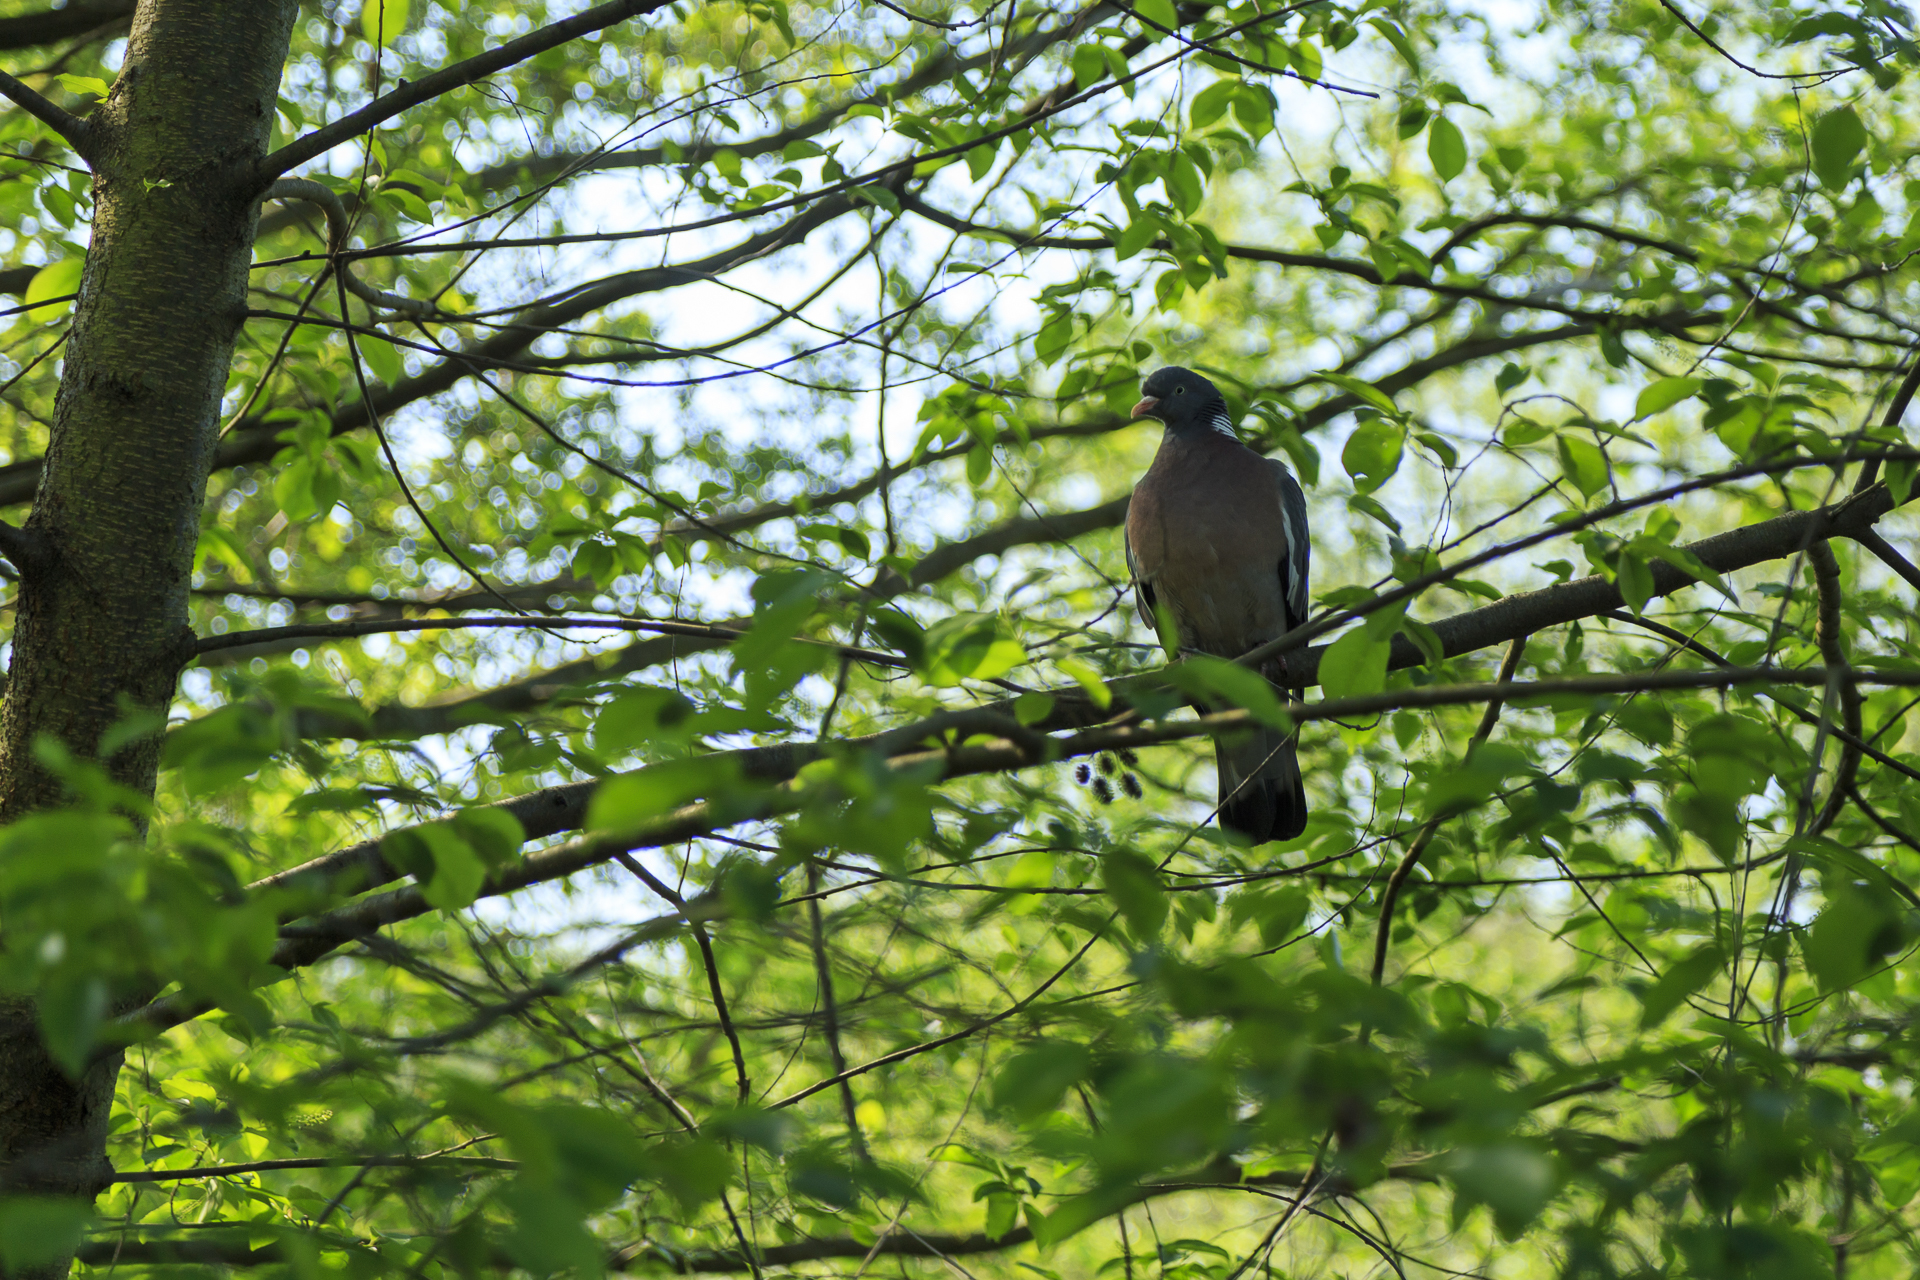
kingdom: Animalia
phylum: Chordata
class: Aves
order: Columbiformes
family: Columbidae
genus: Columba
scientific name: Columba palumbus
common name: Common wood pigeon
